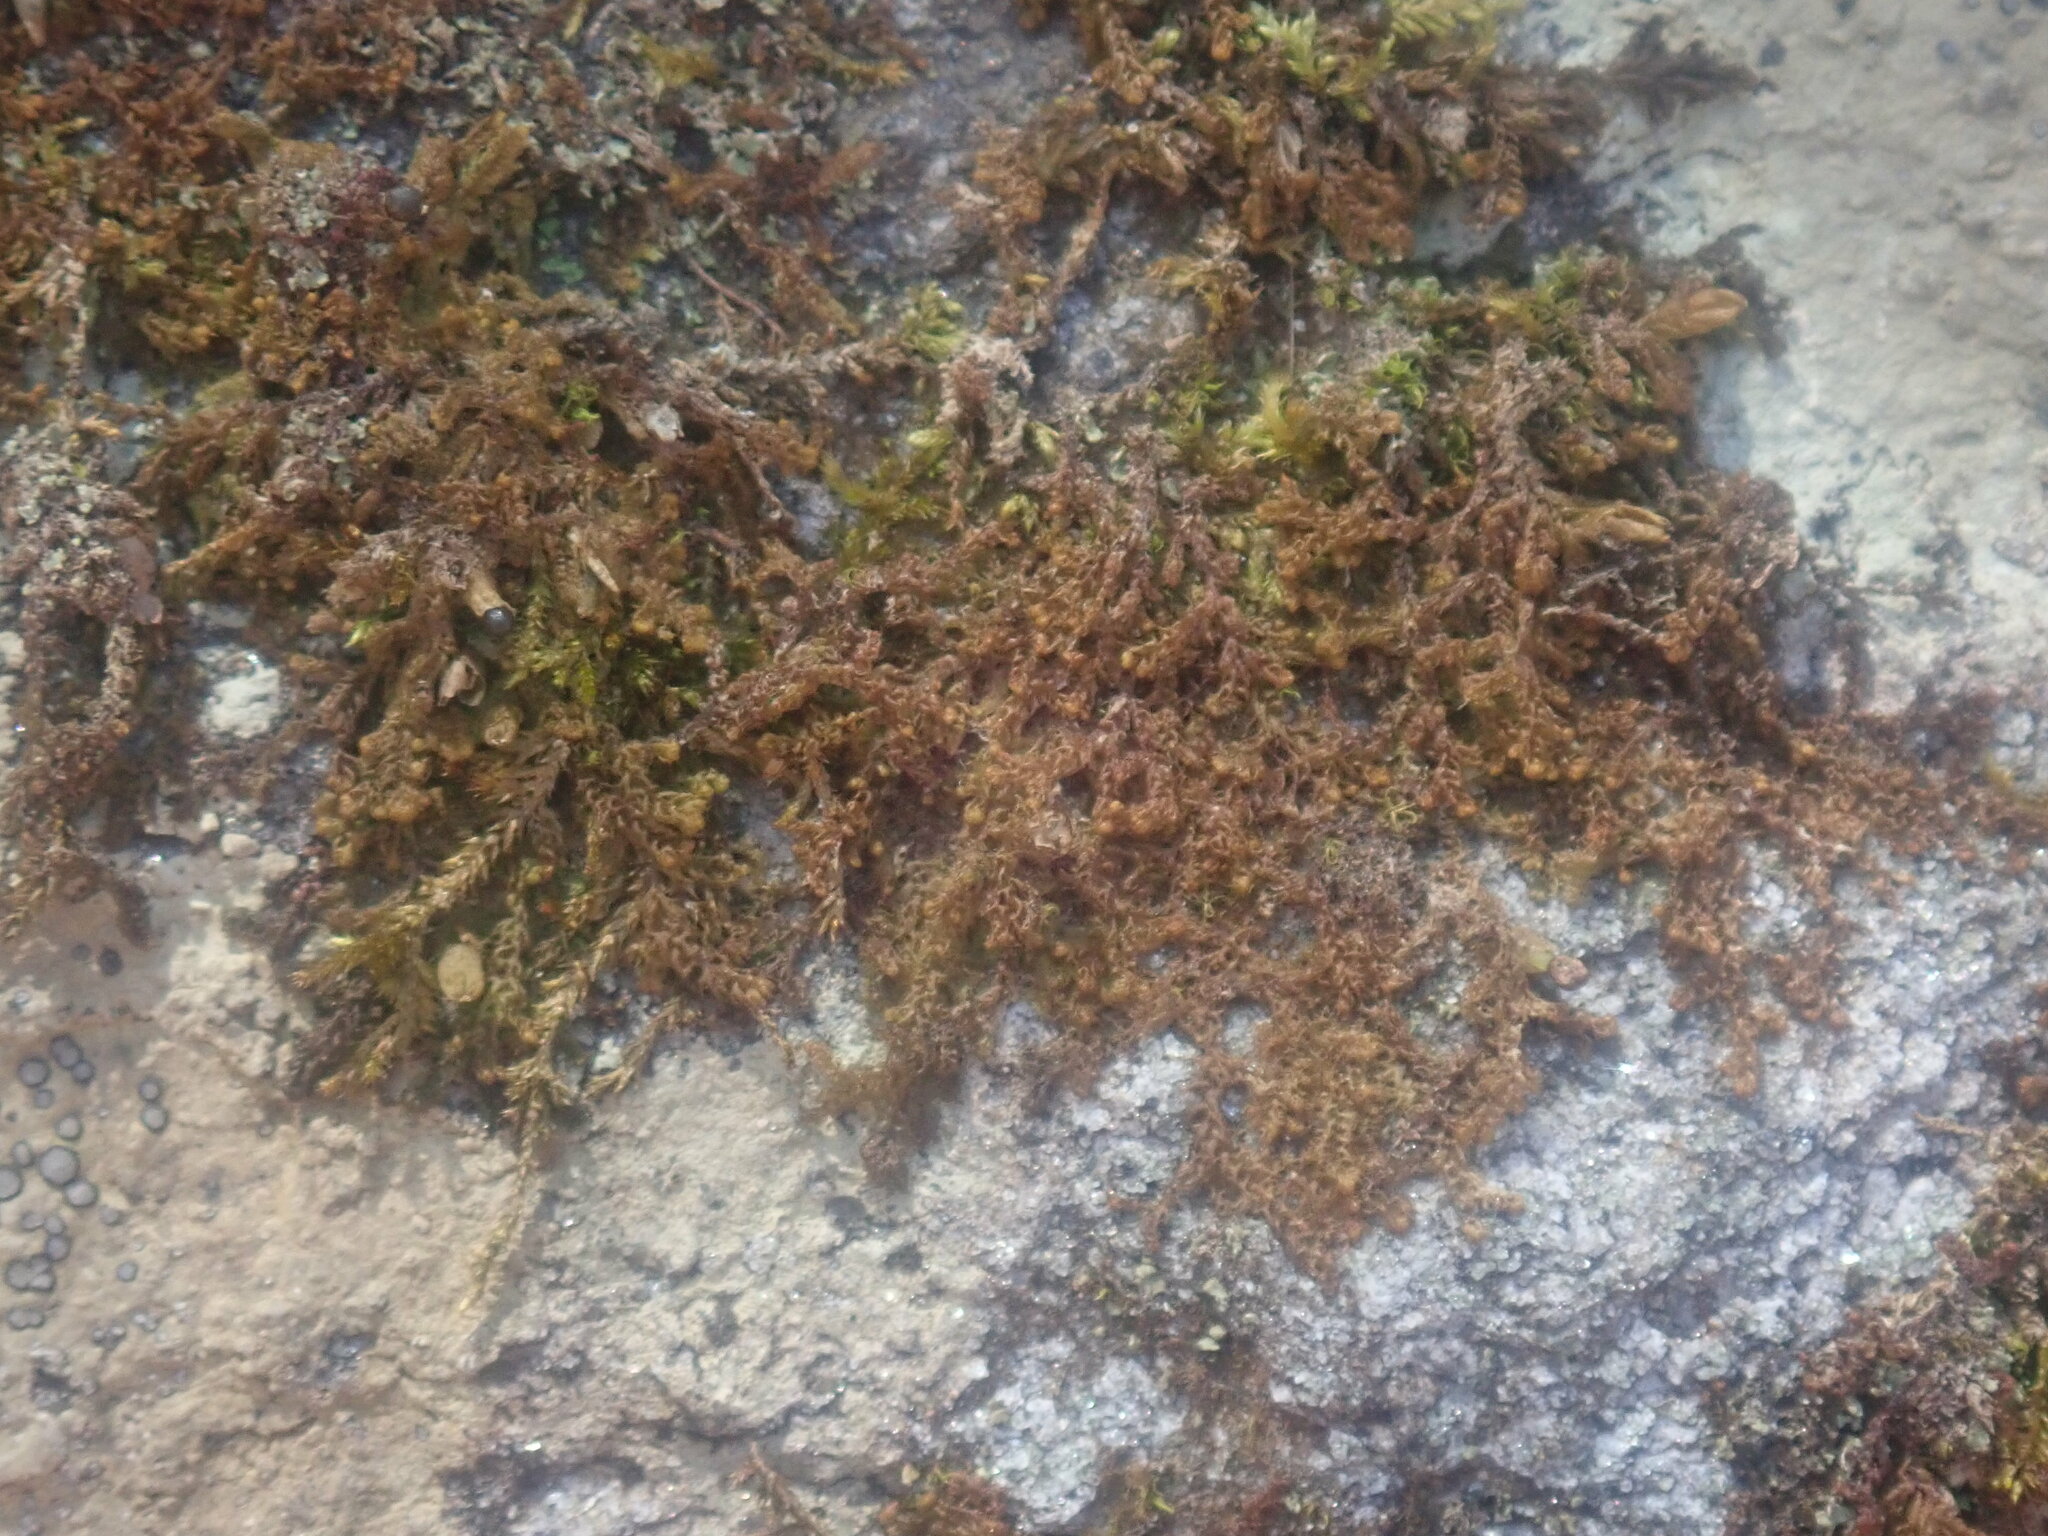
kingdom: Plantae
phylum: Marchantiophyta
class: Jungermanniopsida
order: Ptilidiales
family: Ptilidiaceae
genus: Ptilidium
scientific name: Ptilidium pulcherrimum
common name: Tree fringewort
